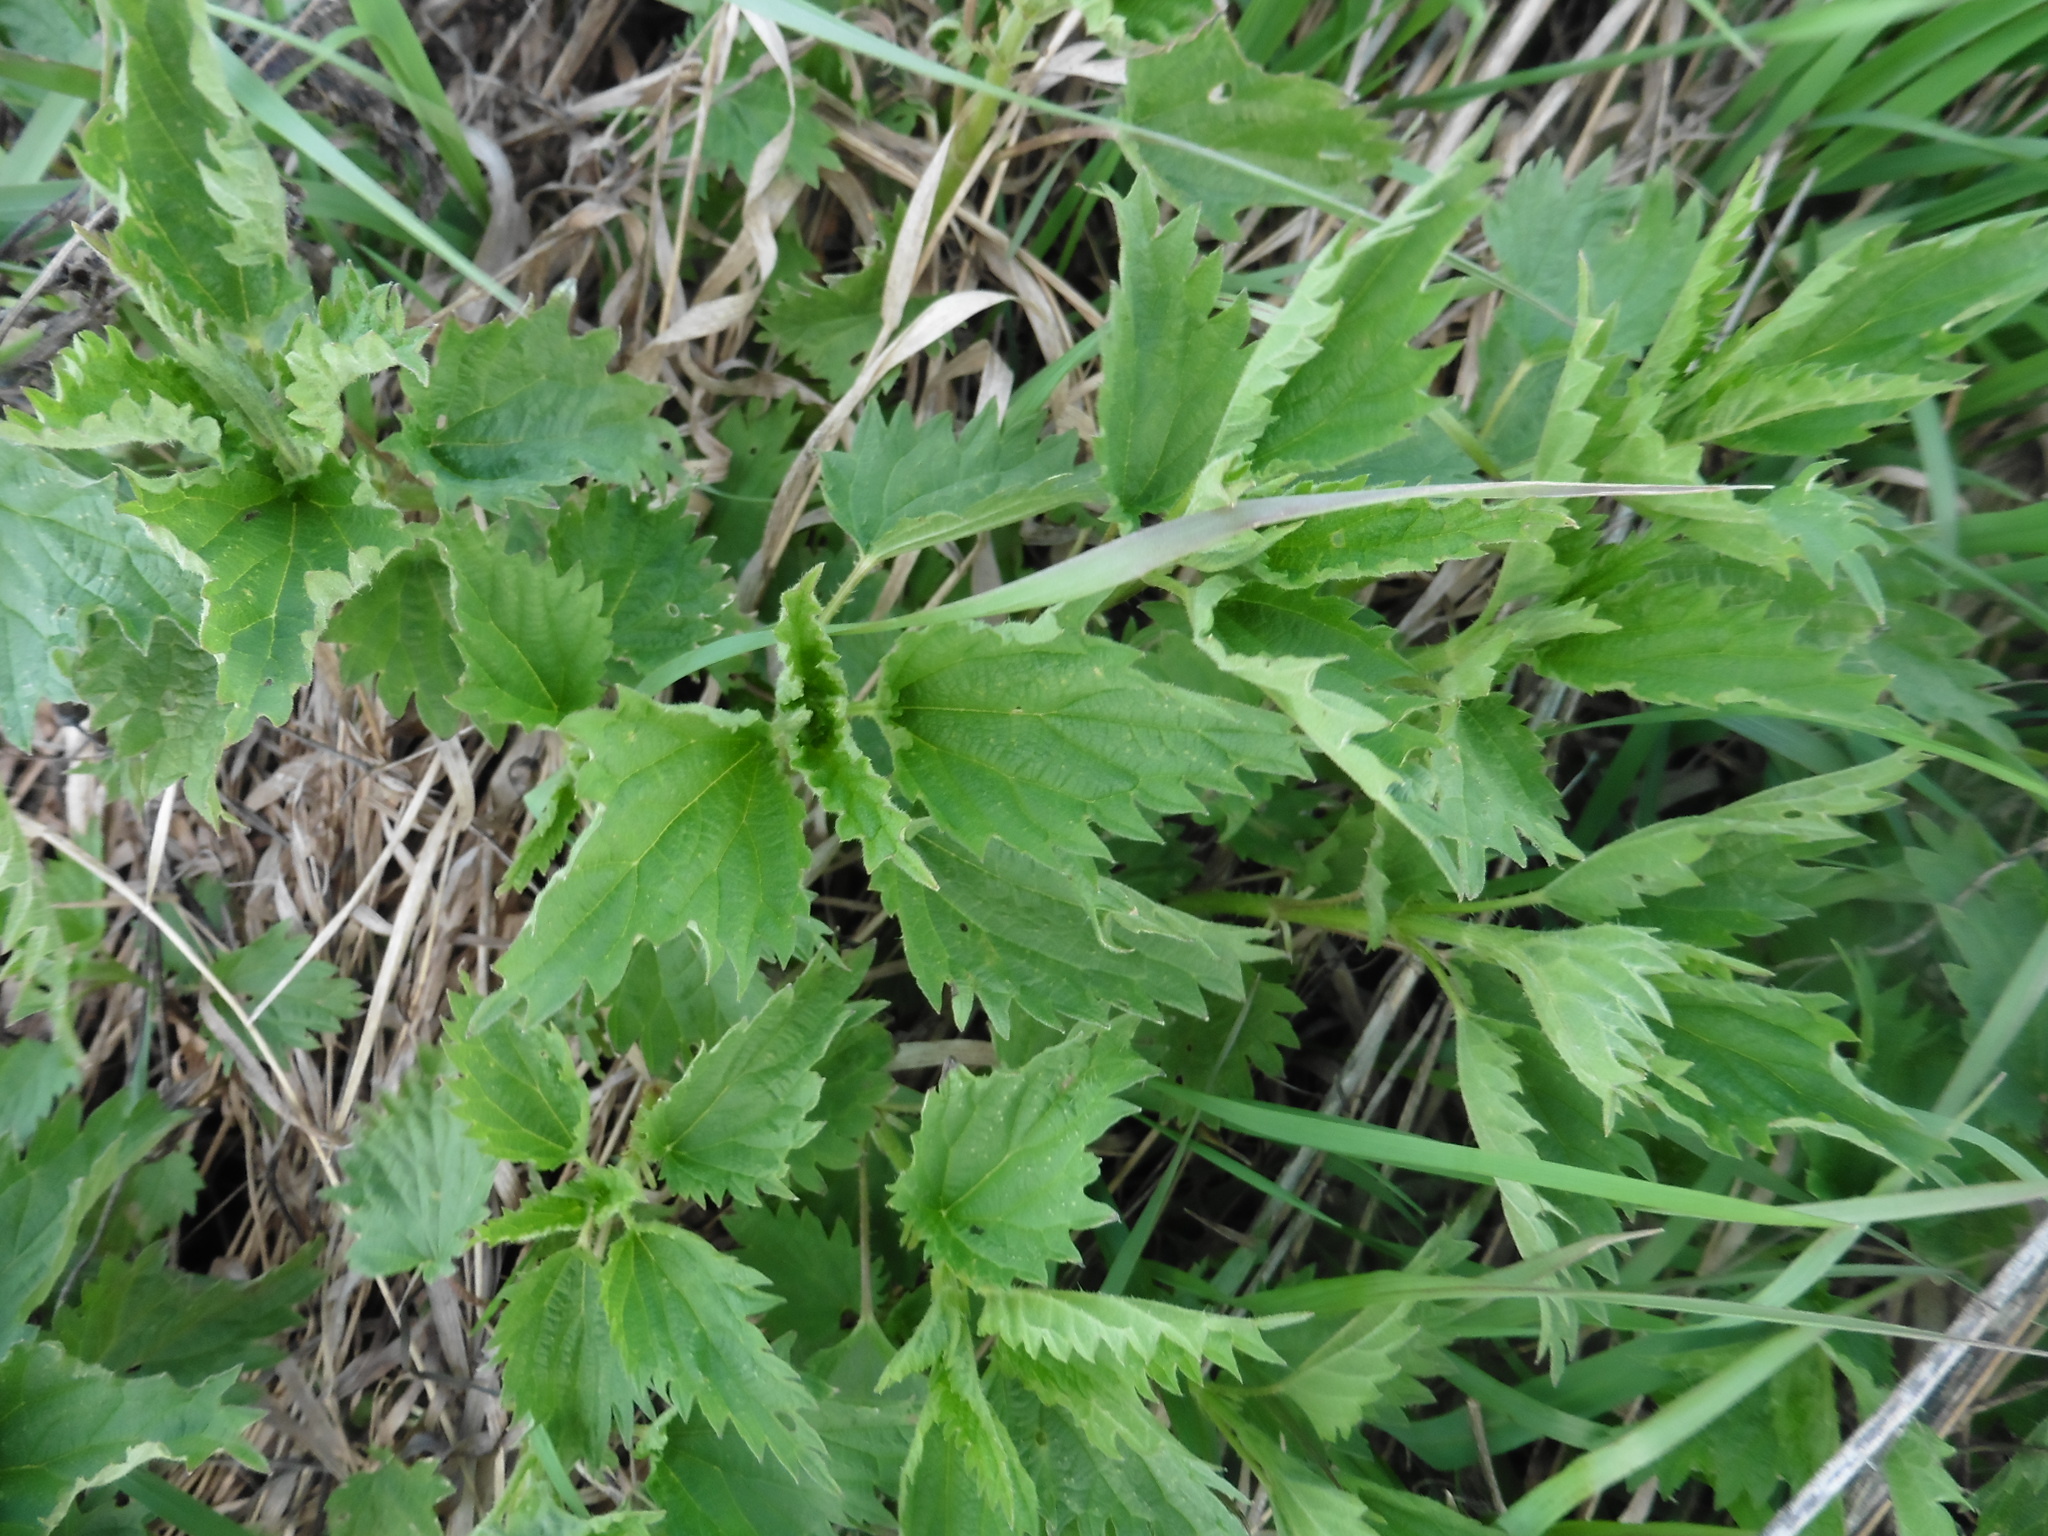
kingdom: Plantae
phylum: Tracheophyta
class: Magnoliopsida
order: Rosales
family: Urticaceae
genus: Urtica
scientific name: Urtica dioica
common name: Common nettle
